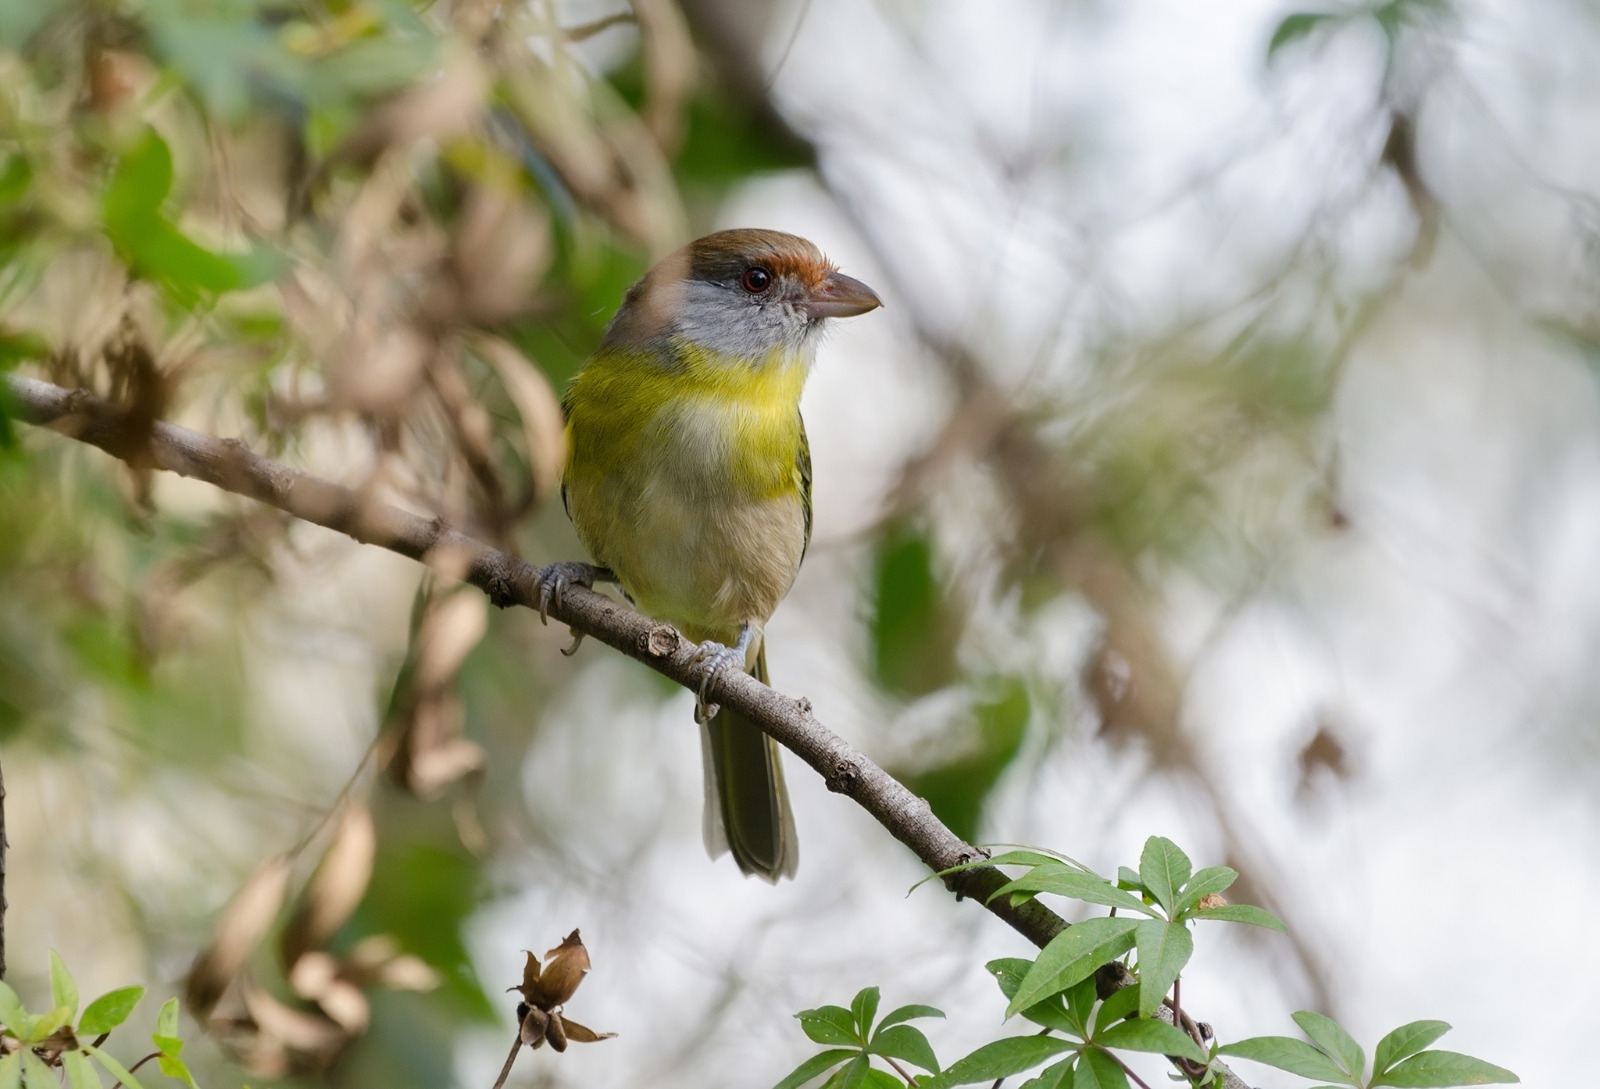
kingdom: Animalia
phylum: Chordata
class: Aves
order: Passeriformes
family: Vireonidae
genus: Cyclarhis
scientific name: Cyclarhis gujanensis
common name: Rufous-browed peppershrike
